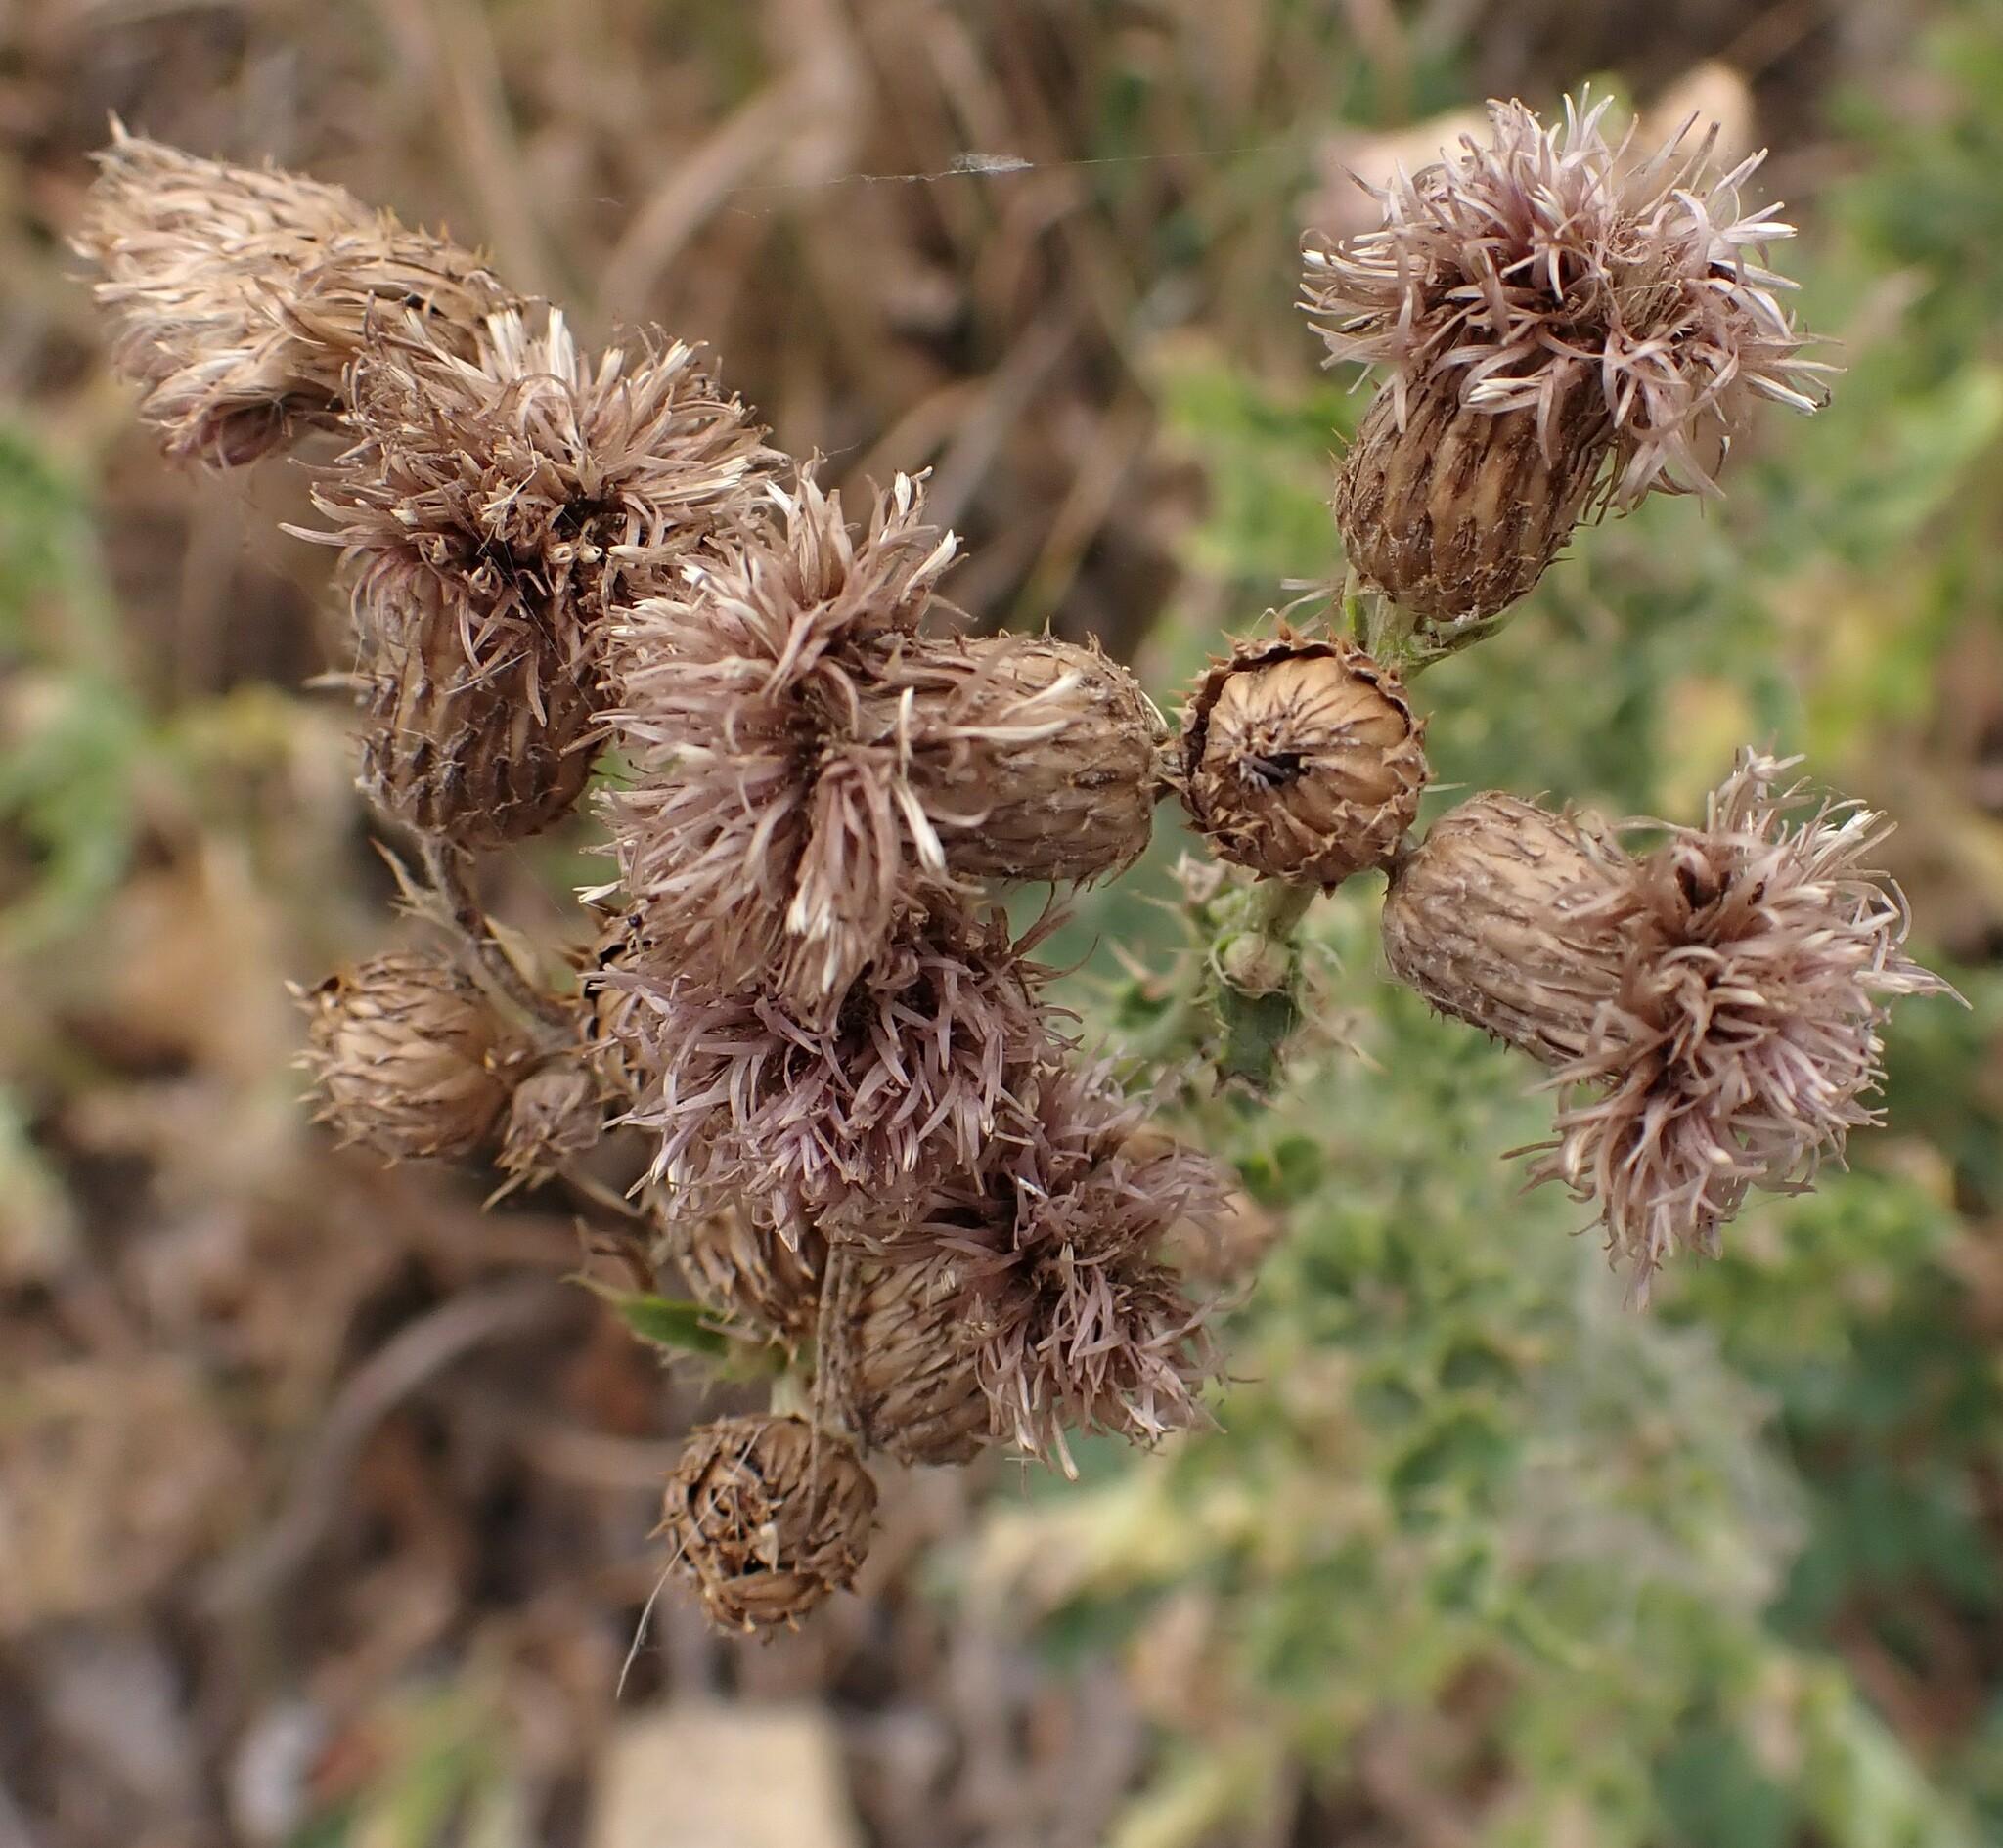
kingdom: Plantae
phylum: Tracheophyta
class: Magnoliopsida
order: Asterales
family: Asteraceae
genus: Cirsium
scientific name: Cirsium arvense
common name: Creeping thistle
